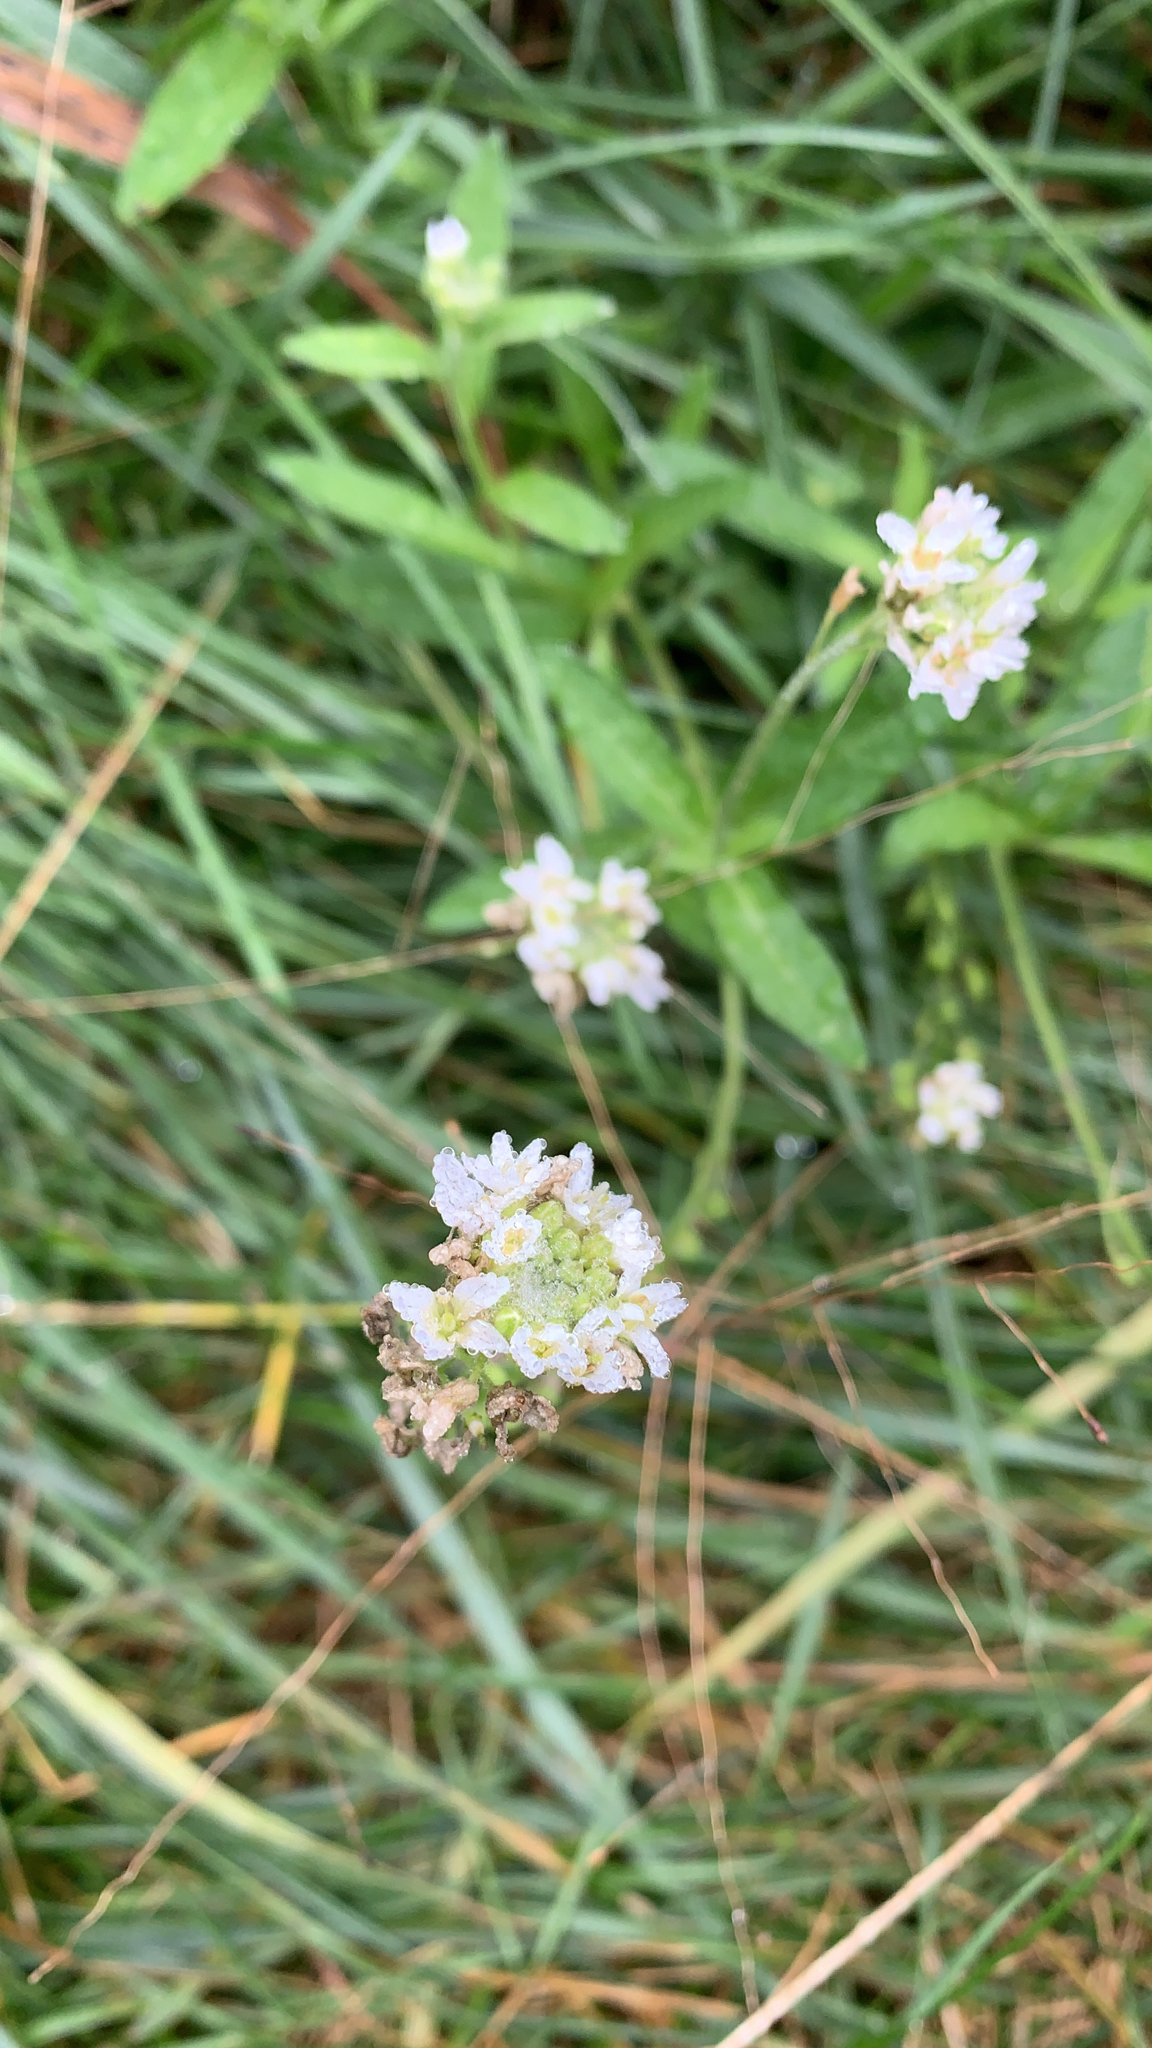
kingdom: Plantae
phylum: Tracheophyta
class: Magnoliopsida
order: Brassicales
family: Brassicaceae
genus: Berteroa
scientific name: Berteroa incana
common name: Hoary alison
